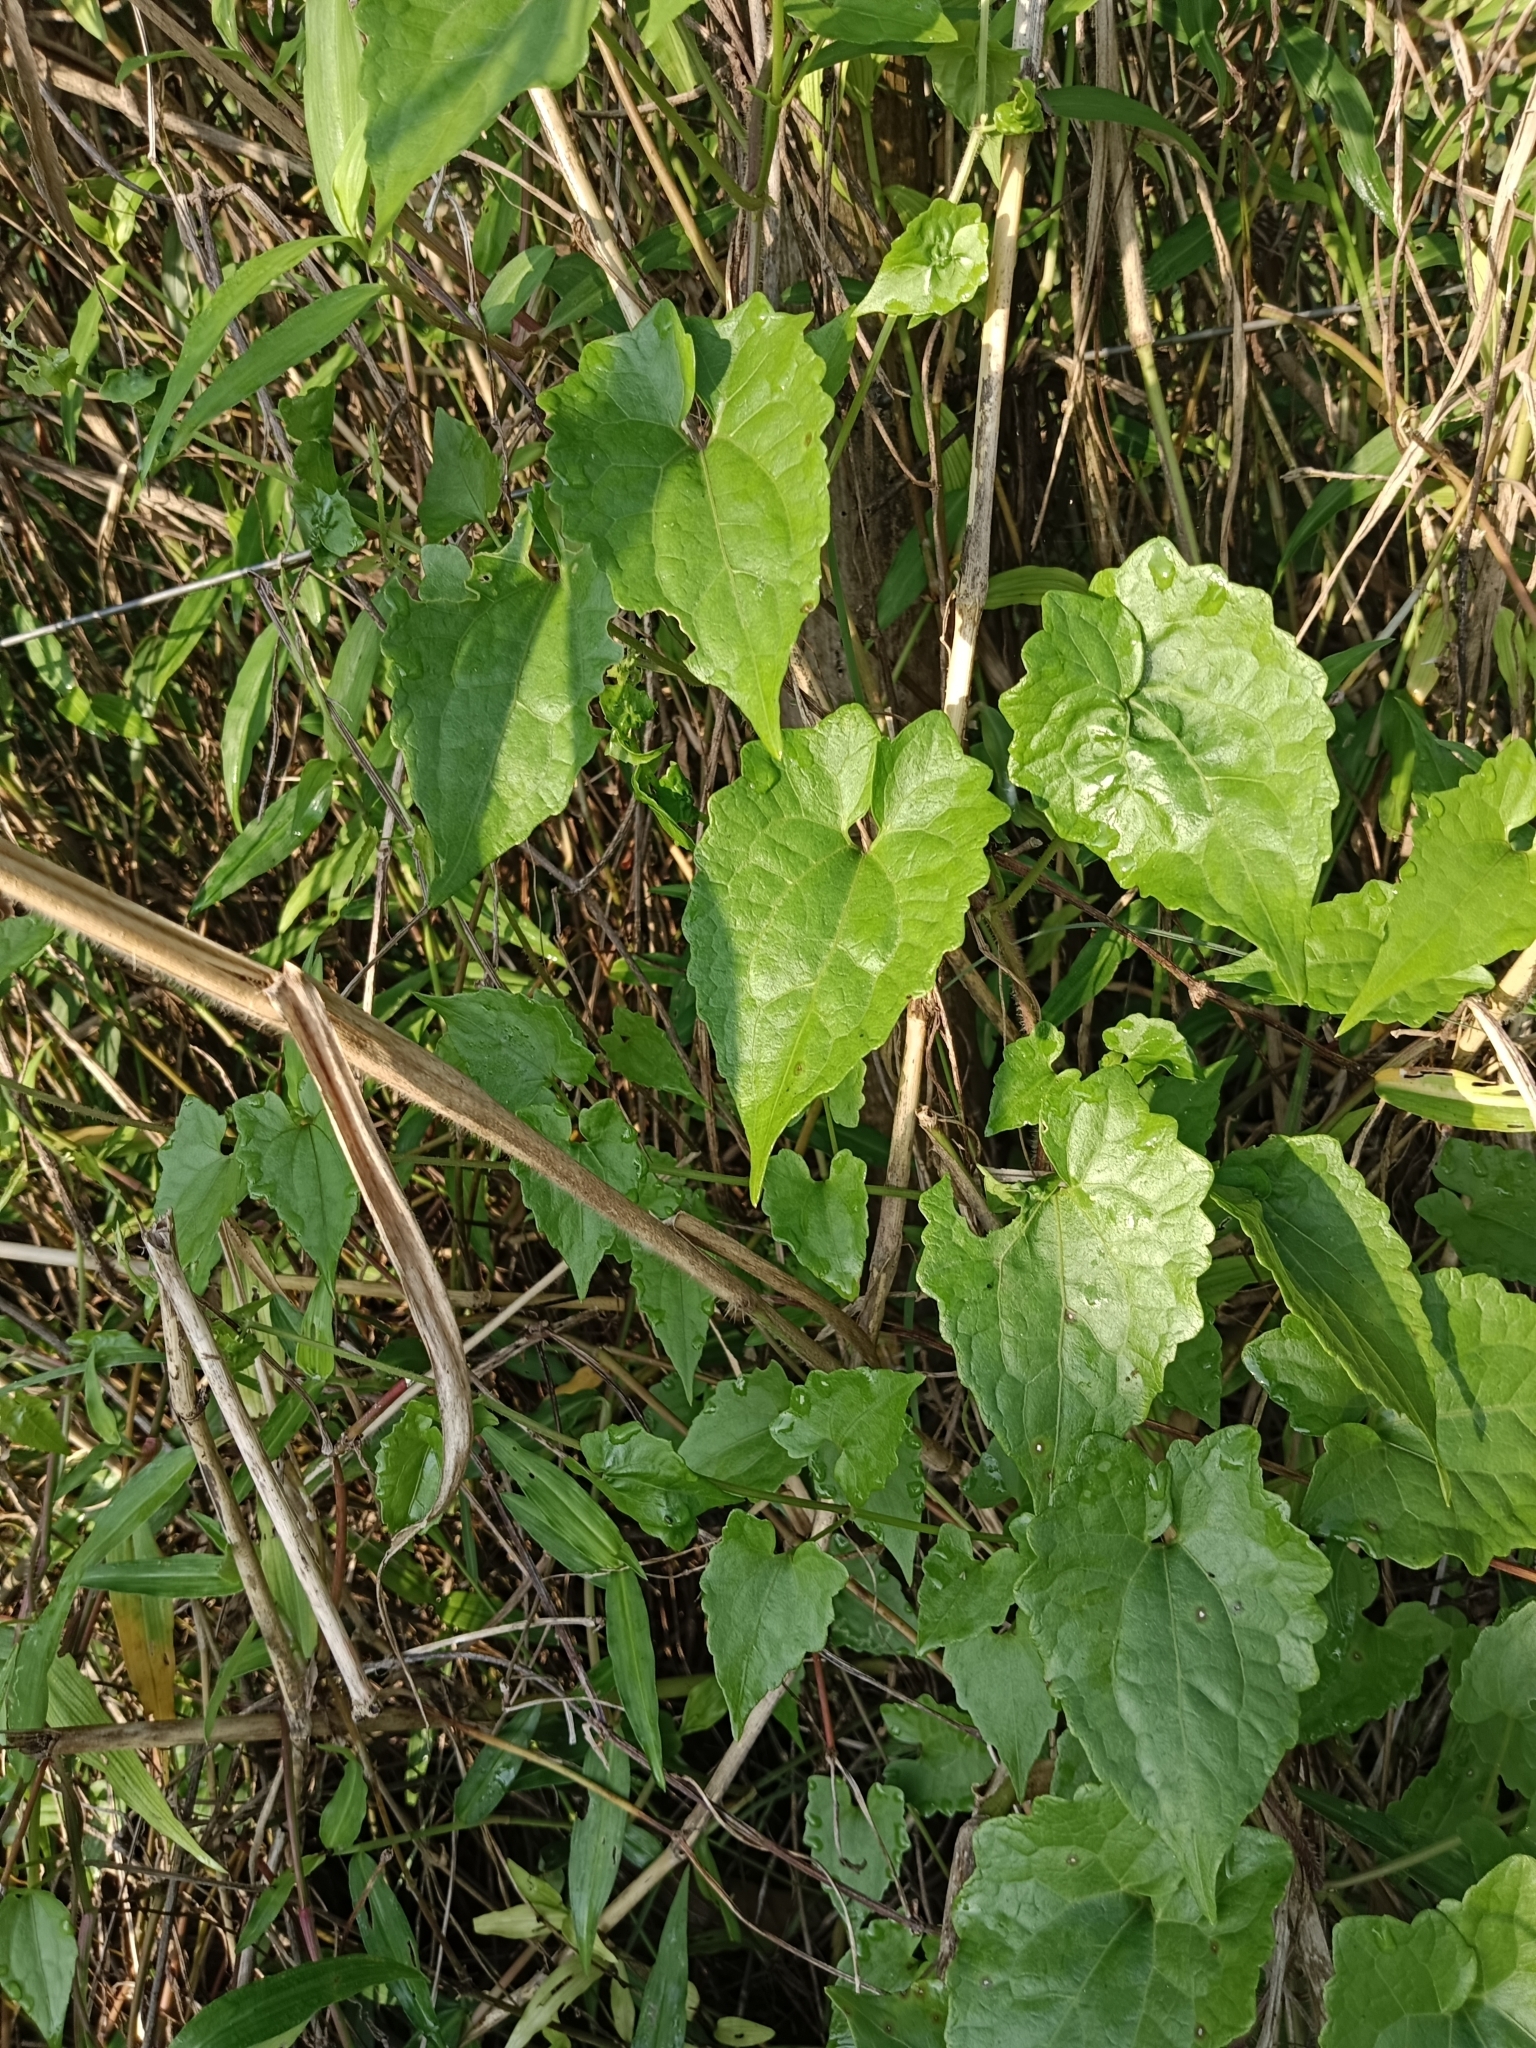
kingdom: Plantae
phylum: Tracheophyta
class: Magnoliopsida
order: Asterales
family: Asteraceae
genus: Mikania
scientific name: Mikania micrantha
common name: Mile-a-minute
